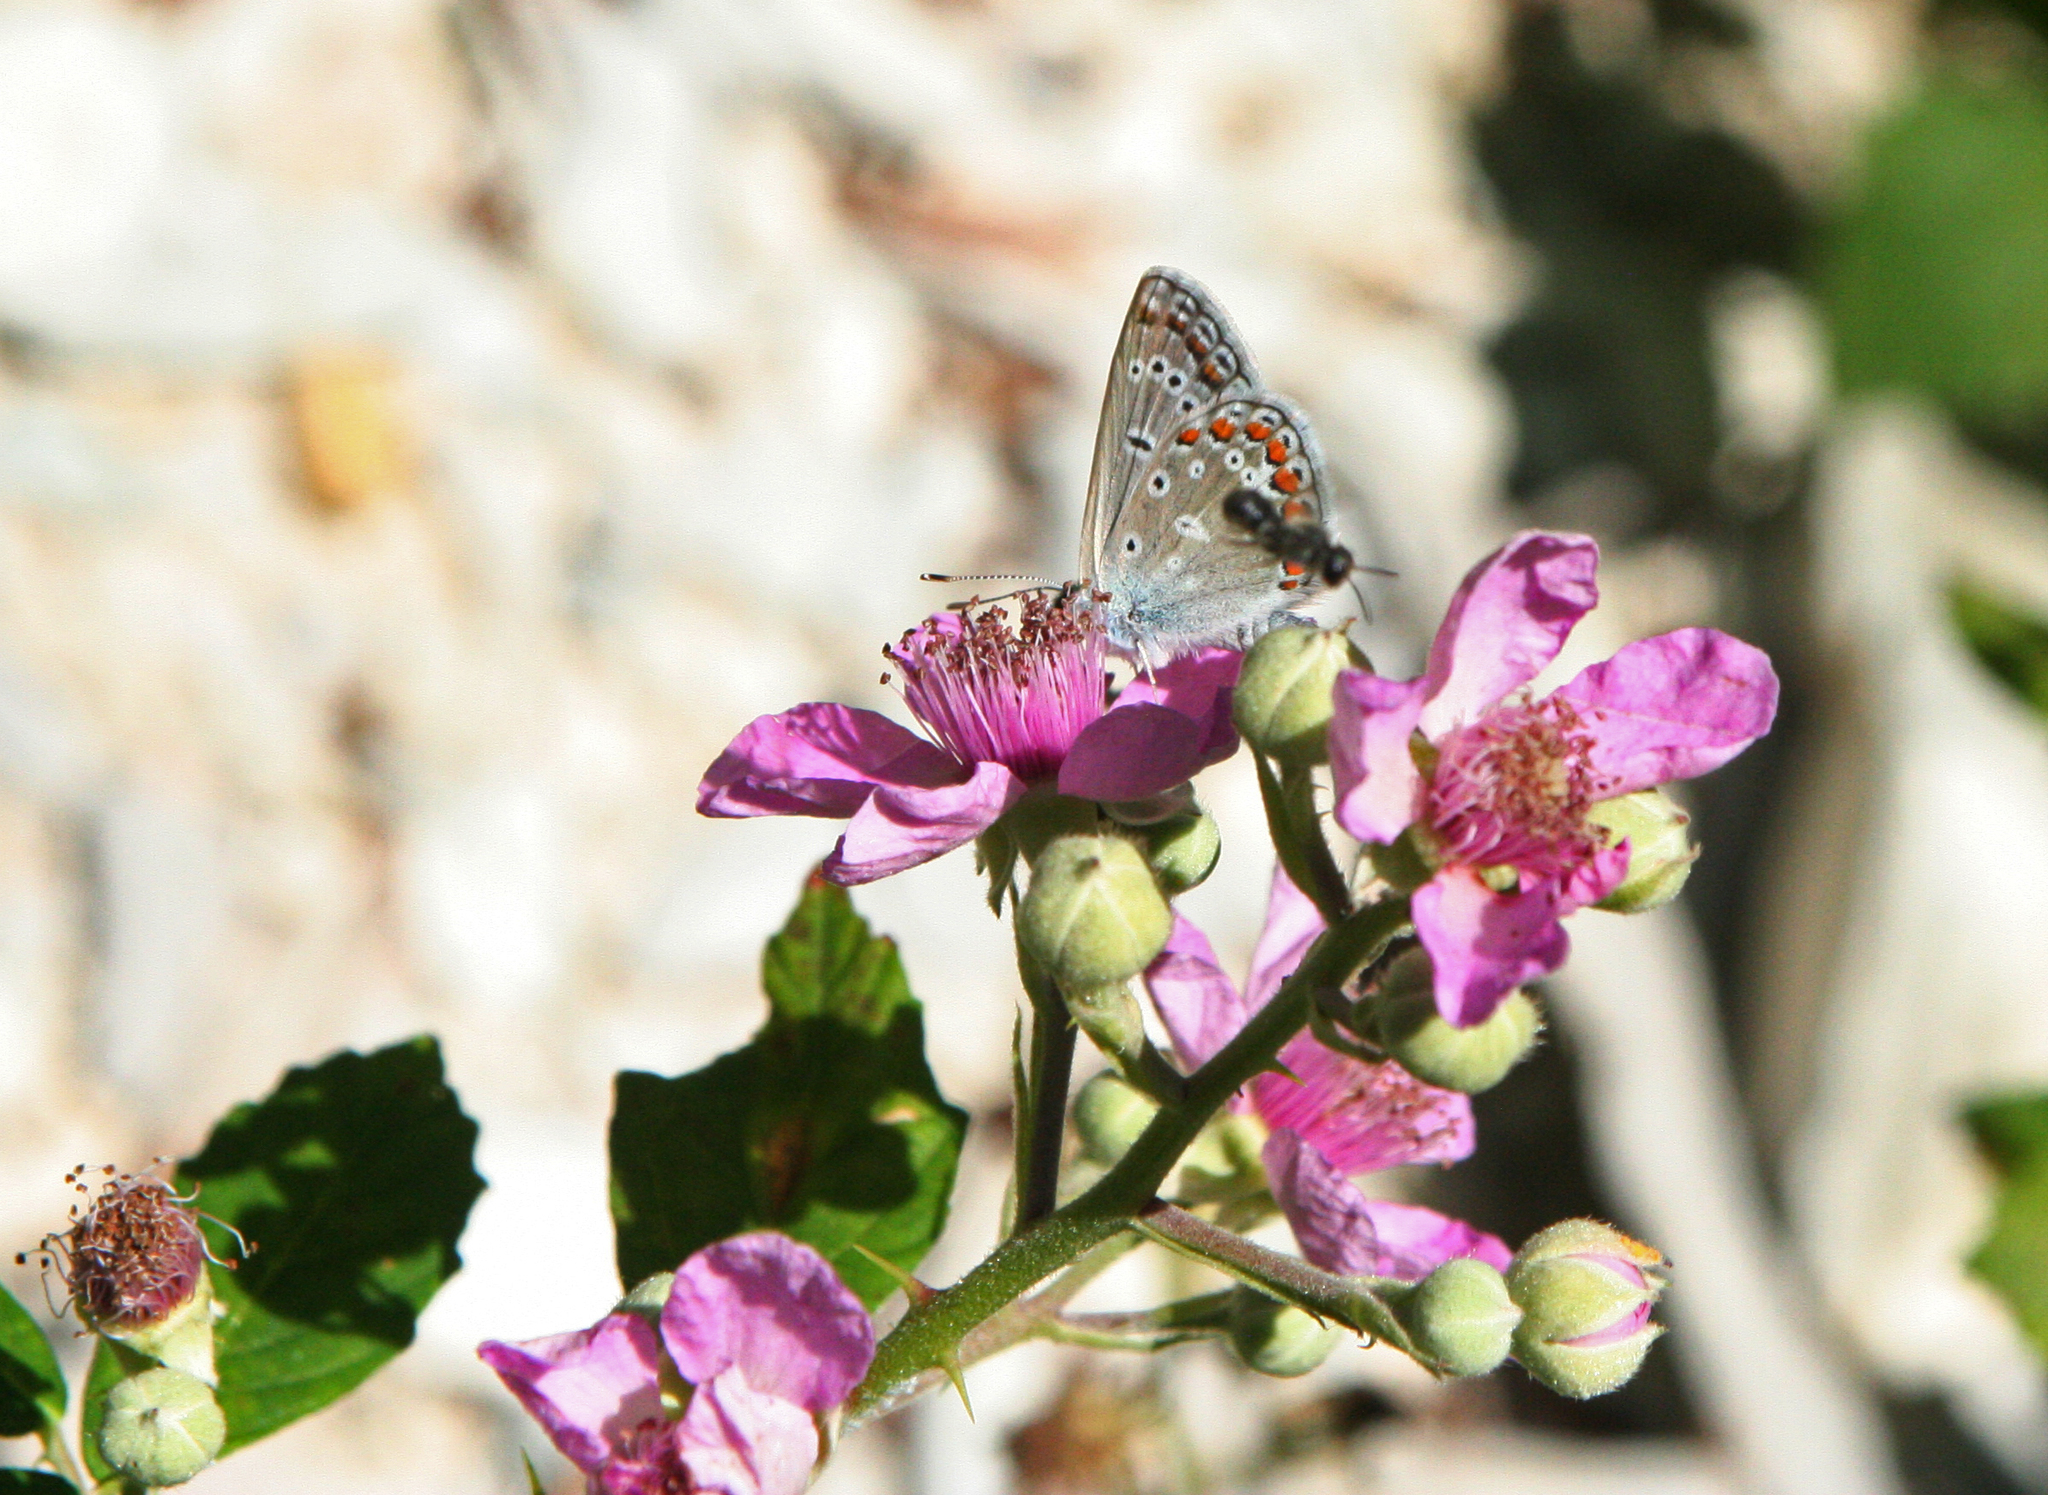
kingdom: Animalia
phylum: Arthropoda
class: Insecta
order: Lepidoptera
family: Lycaenidae
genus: Polyommatus
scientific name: Polyommatus icarus
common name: Common blue
